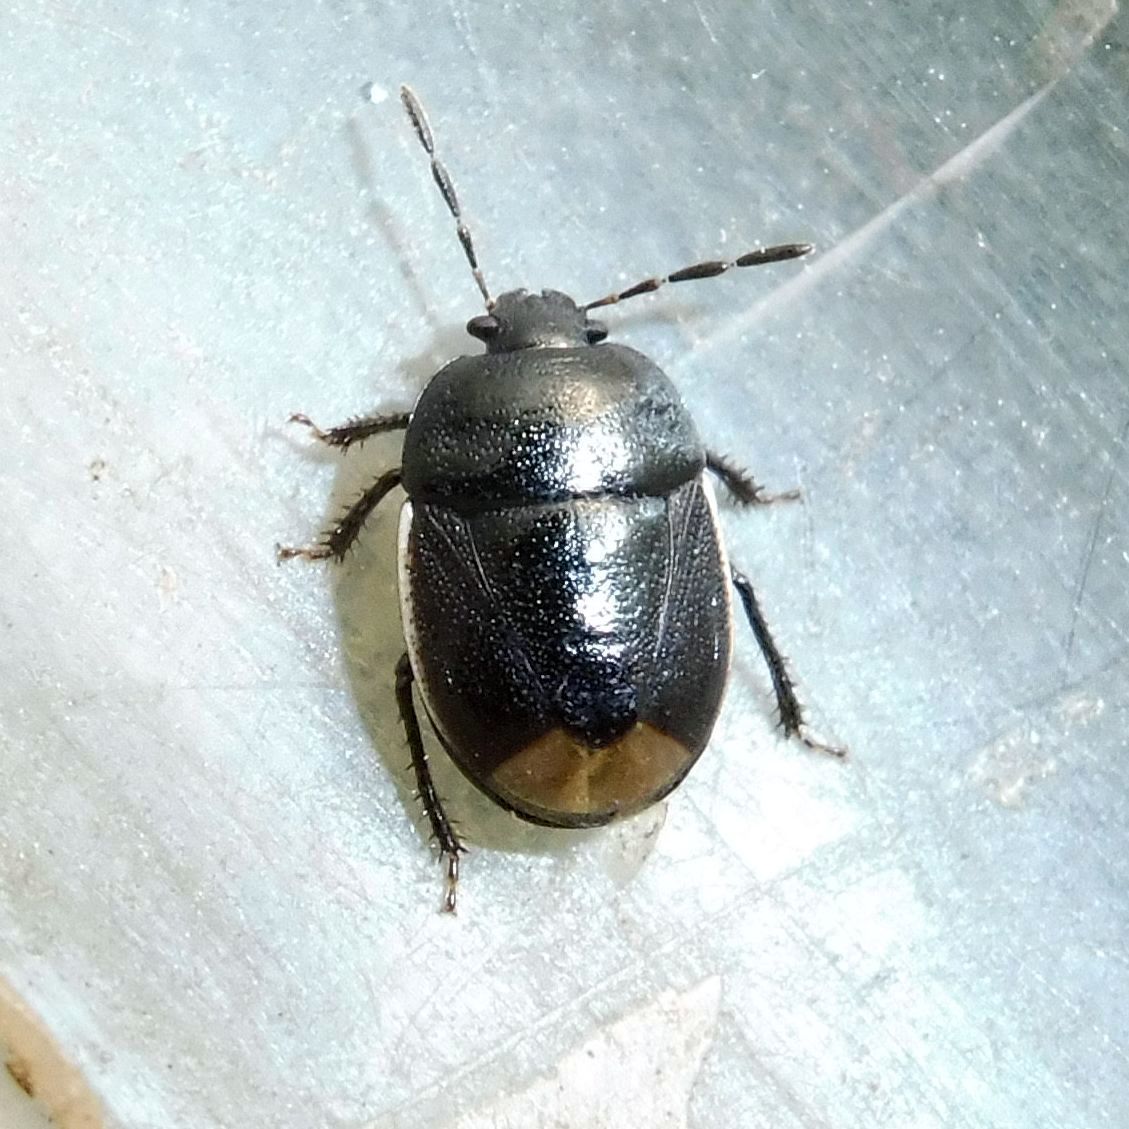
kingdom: Animalia
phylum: Arthropoda
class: Insecta
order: Hemiptera
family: Cydnidae
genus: Legnotus
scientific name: Legnotus limbosus
